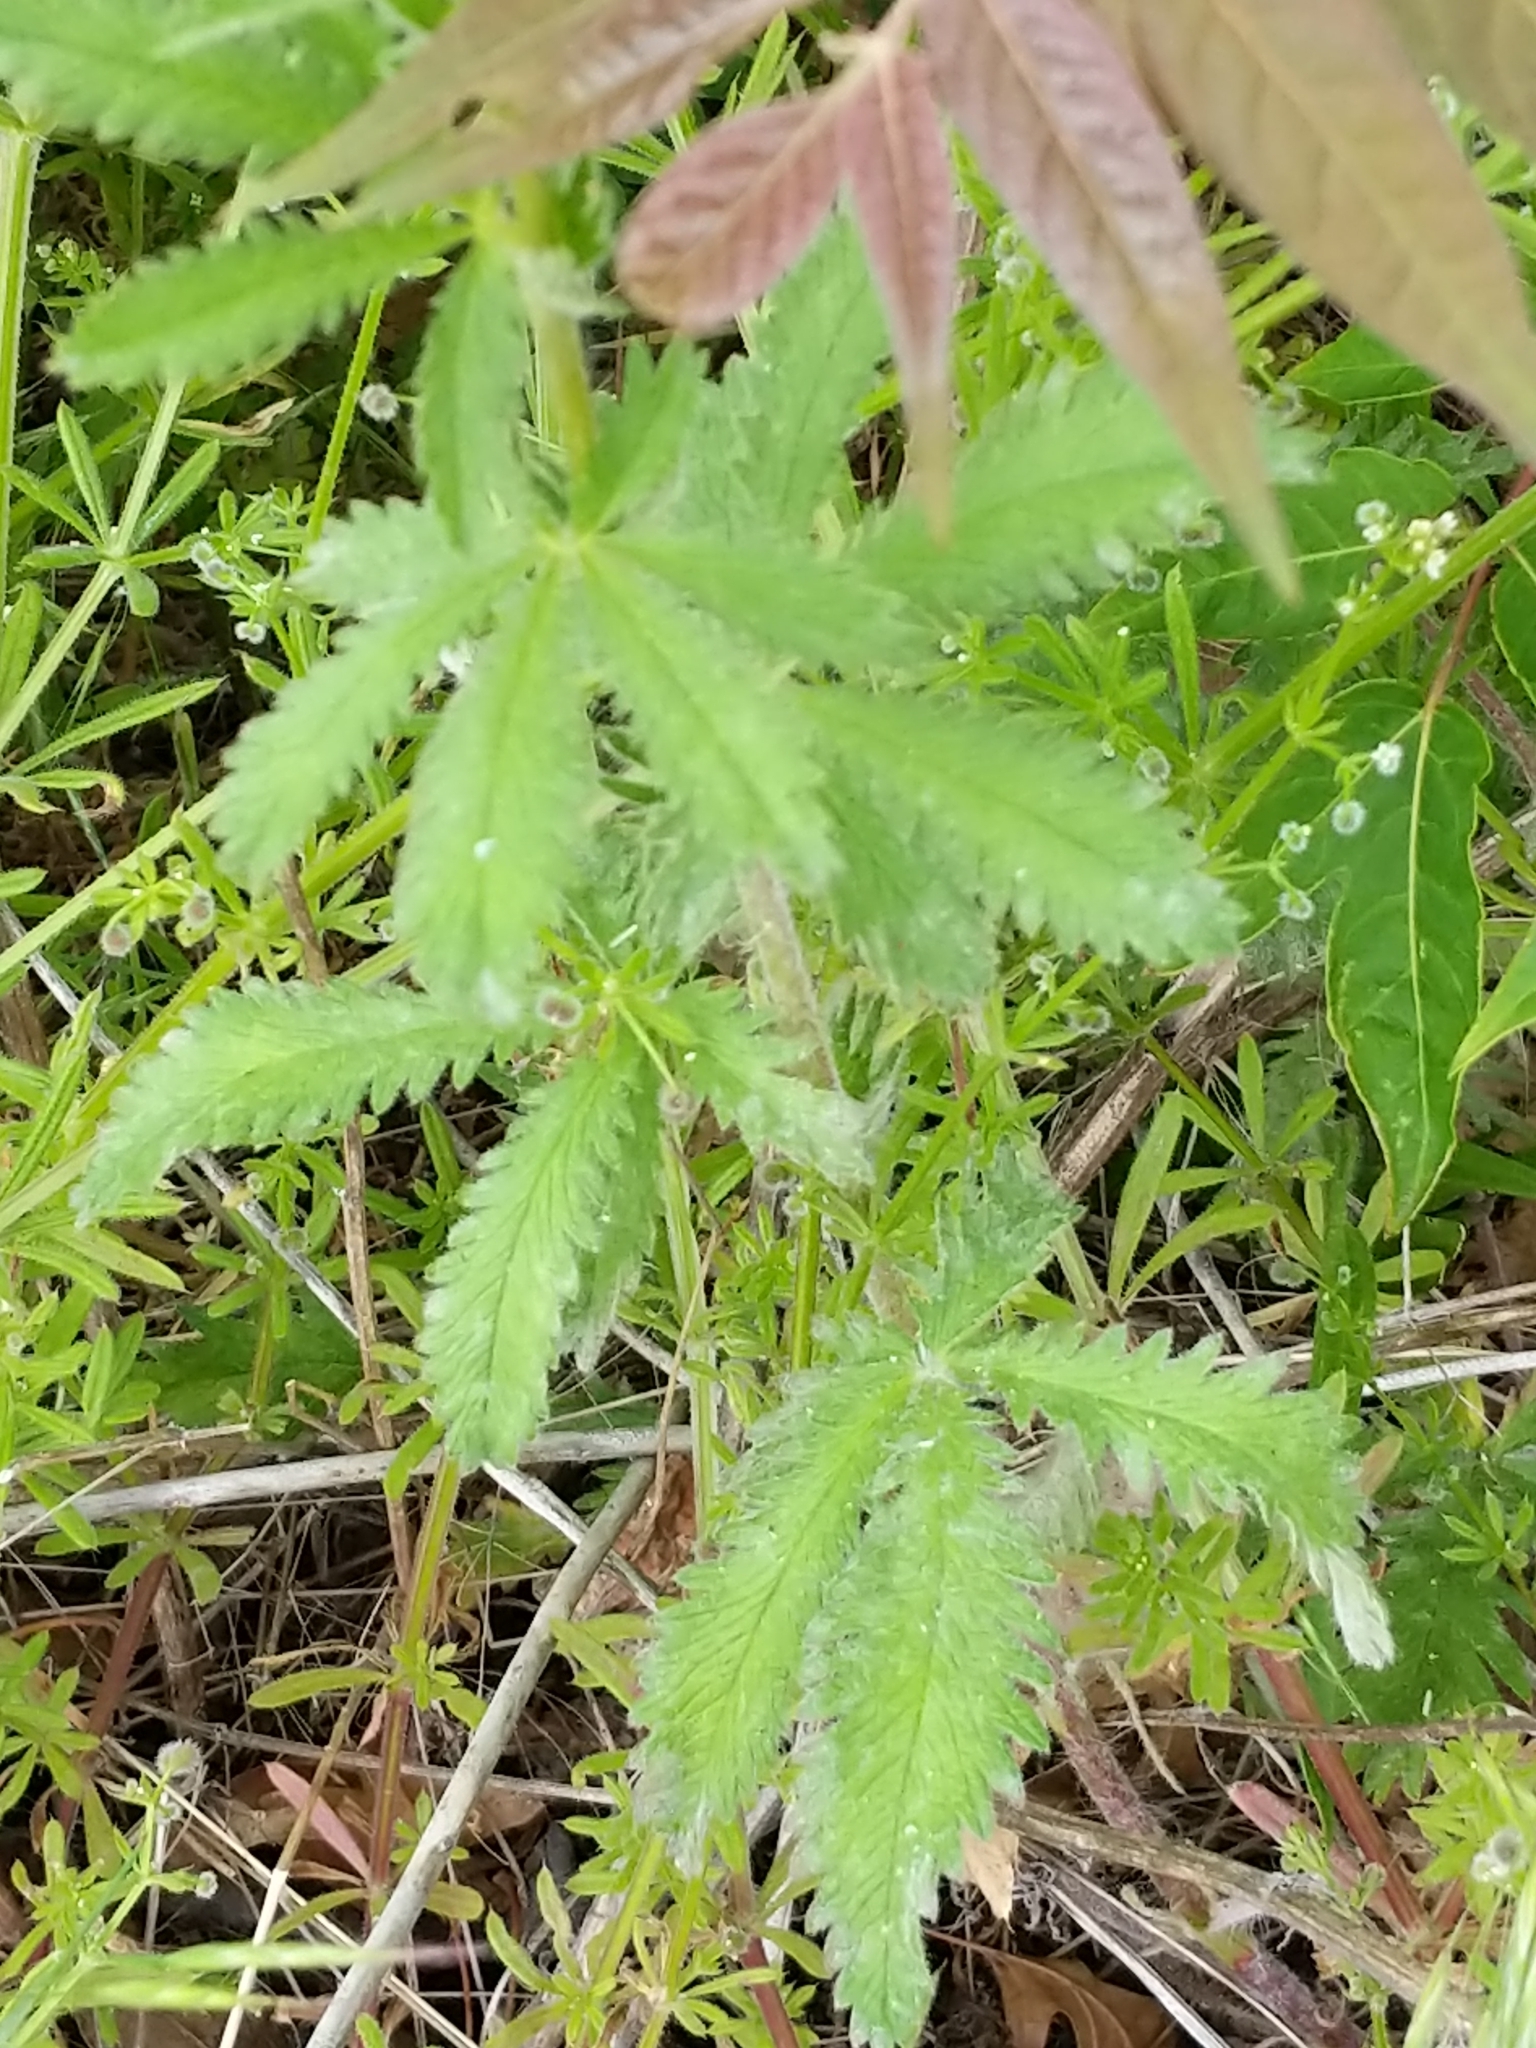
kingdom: Plantae
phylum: Tracheophyta
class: Magnoliopsida
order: Rosales
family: Rosaceae
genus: Potentilla
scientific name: Potentilla recta
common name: Sulphur cinquefoil
